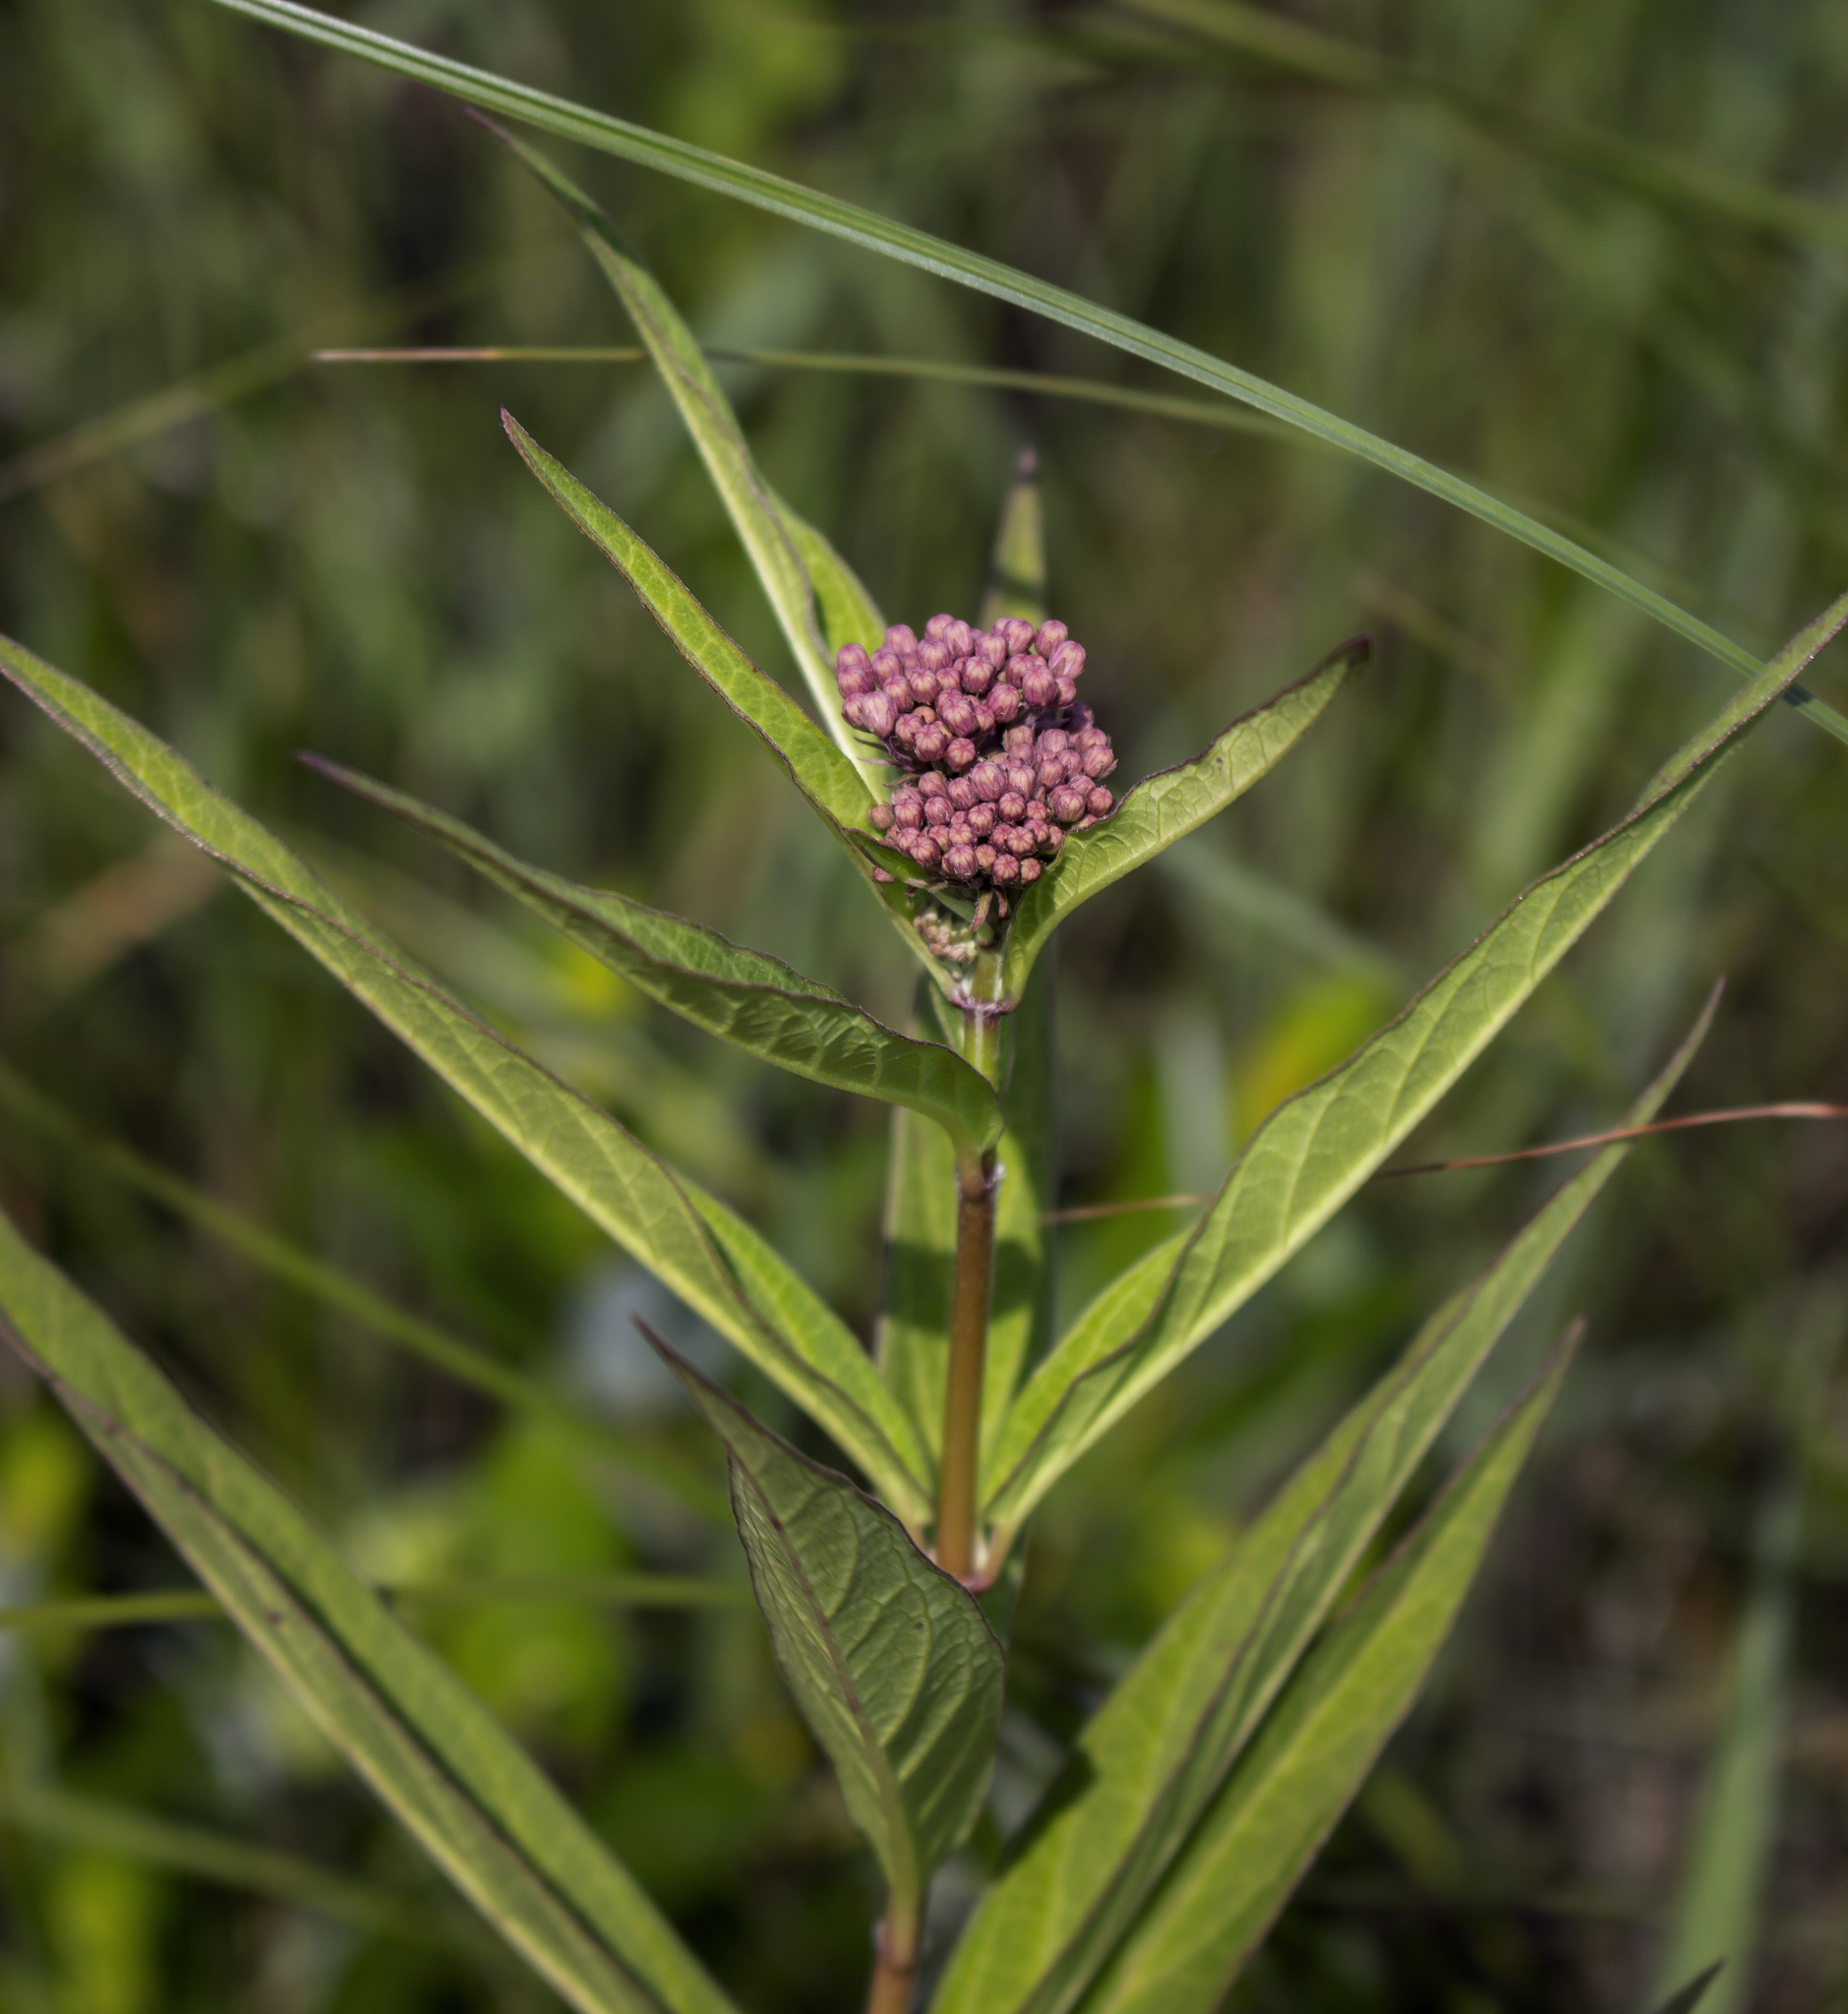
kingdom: Plantae
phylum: Tracheophyta
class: Magnoliopsida
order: Gentianales
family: Apocynaceae
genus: Asclepias
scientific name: Asclepias incarnata
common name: Swamp milkweed
